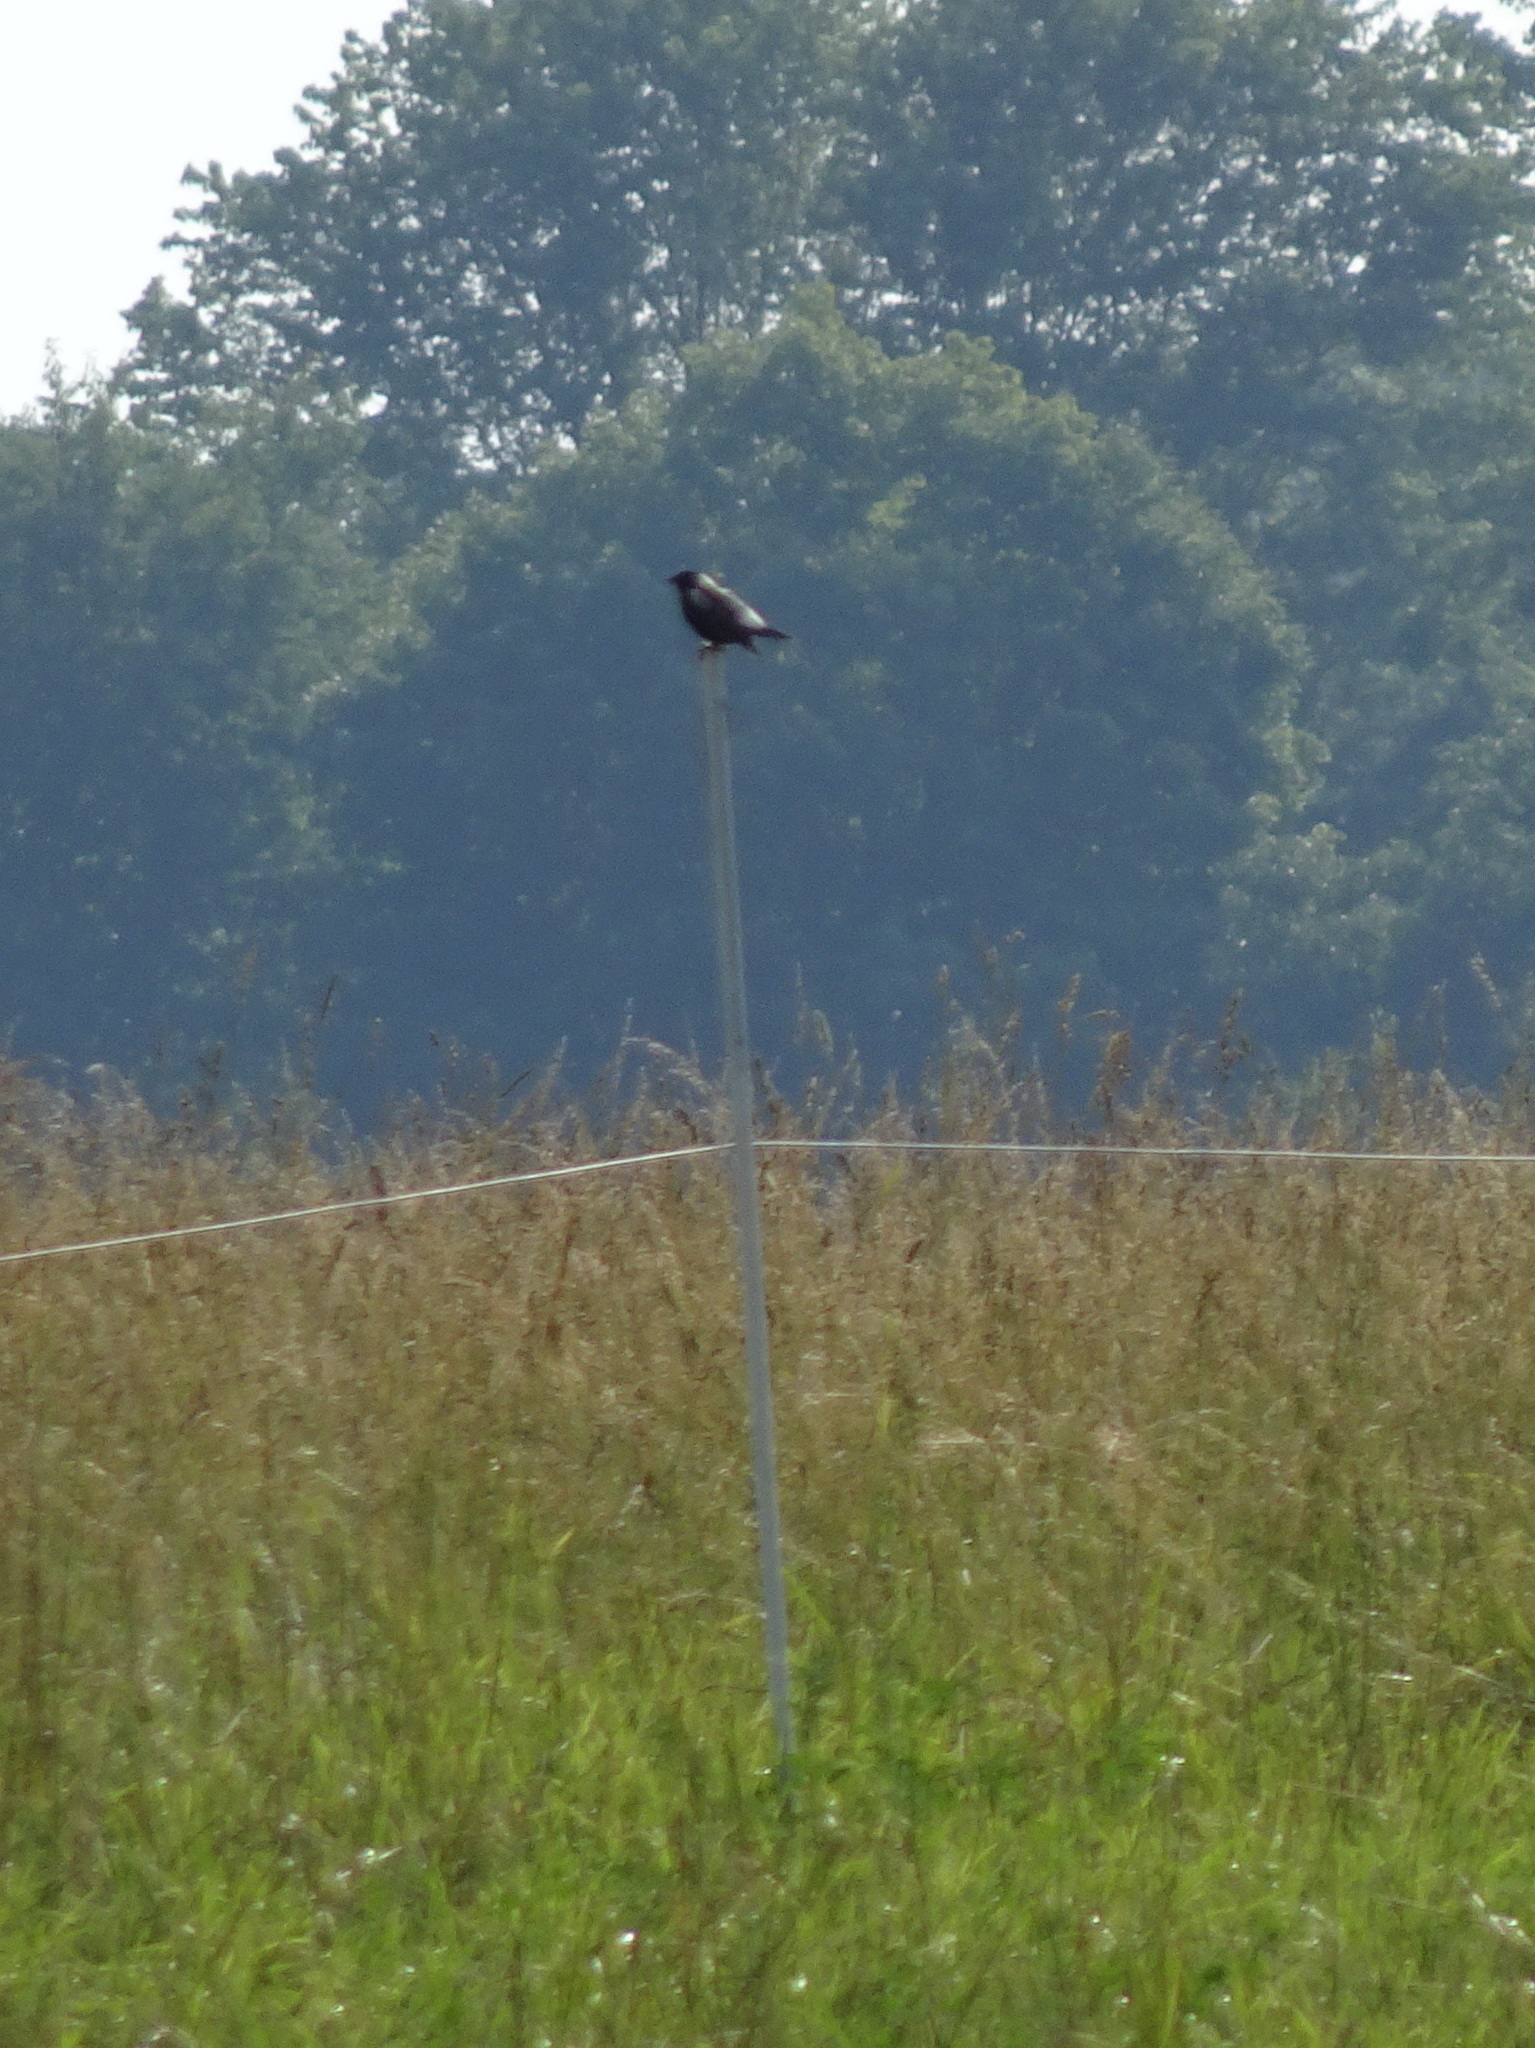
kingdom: Animalia
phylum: Chordata
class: Aves
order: Passeriformes
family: Icteridae
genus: Dolichonyx
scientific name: Dolichonyx oryzivorus
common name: Bobolink
